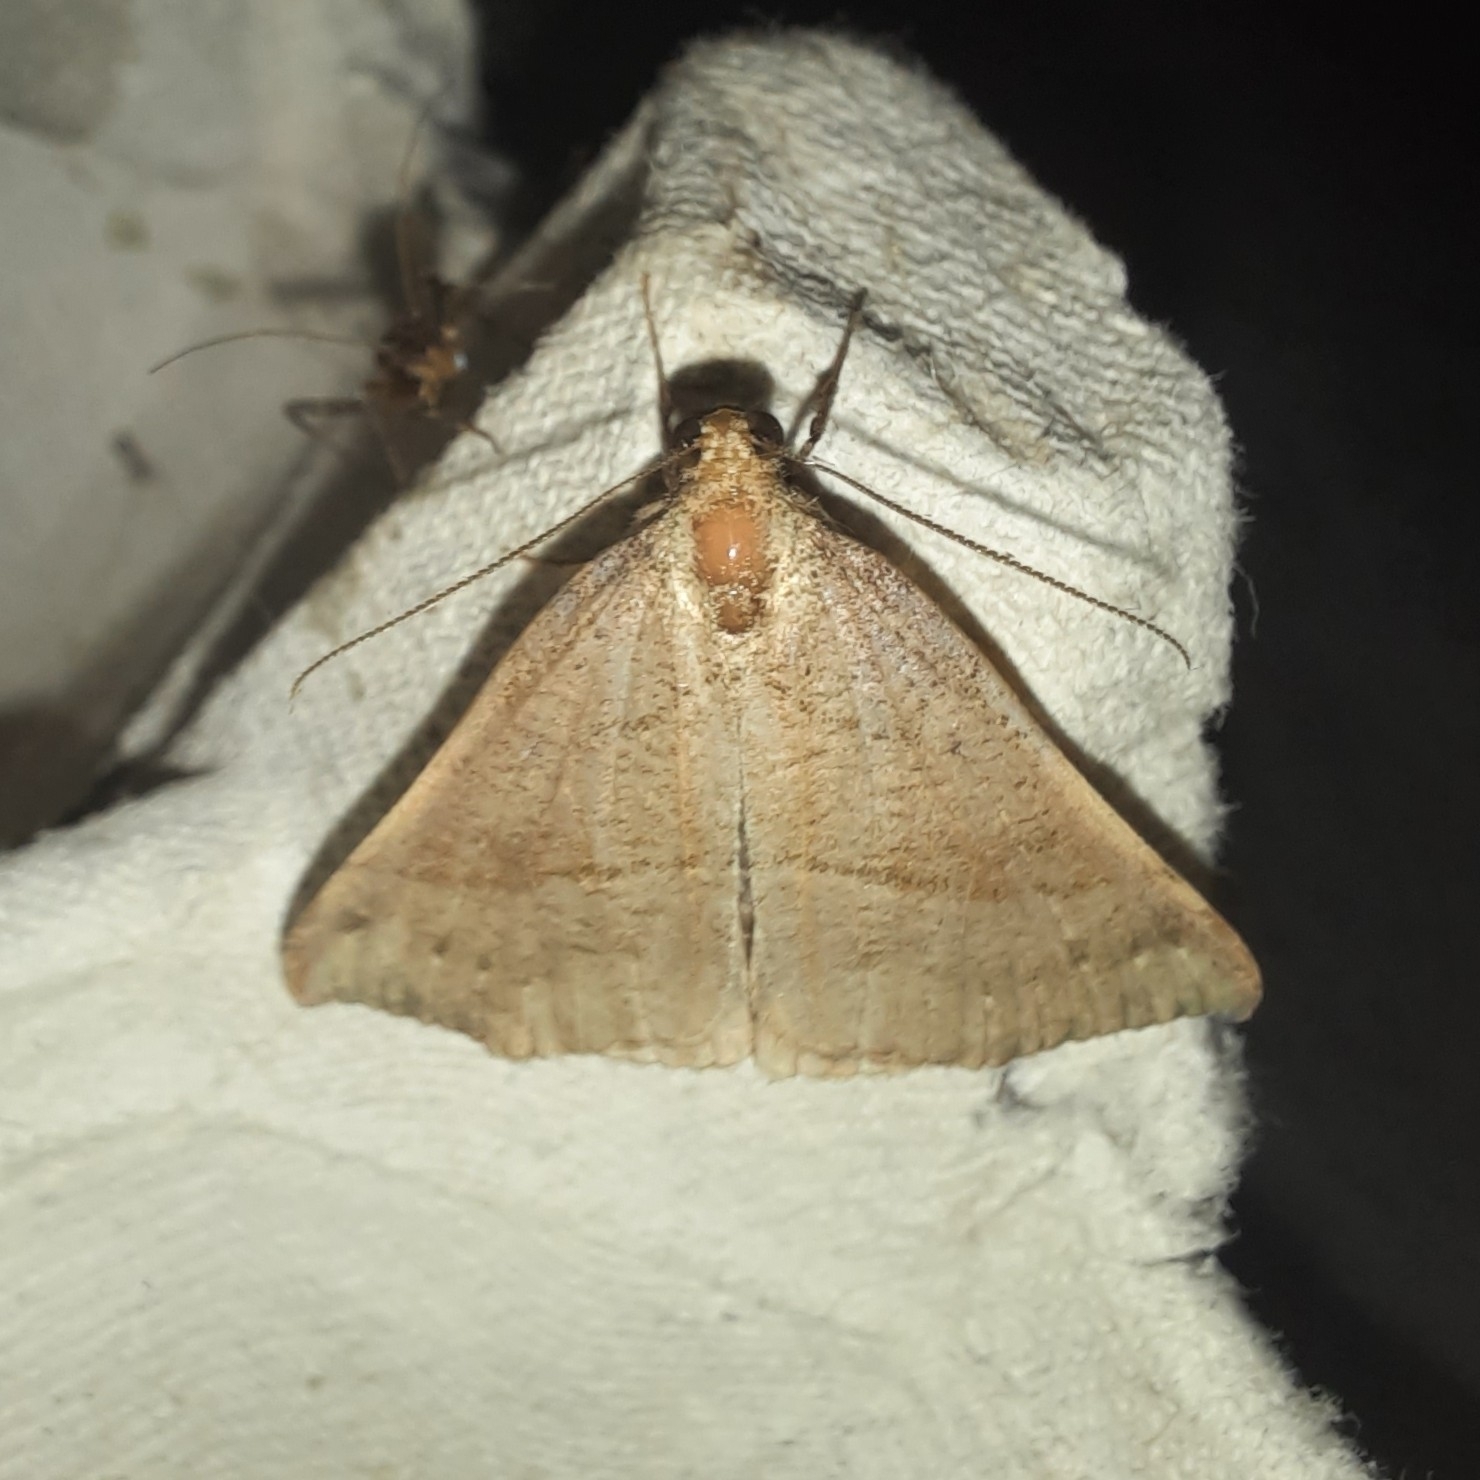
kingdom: Animalia
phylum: Arthropoda
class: Insecta
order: Lepidoptera
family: Erebidae
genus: Hypena
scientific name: Hypena proboscidalis
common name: Snout
